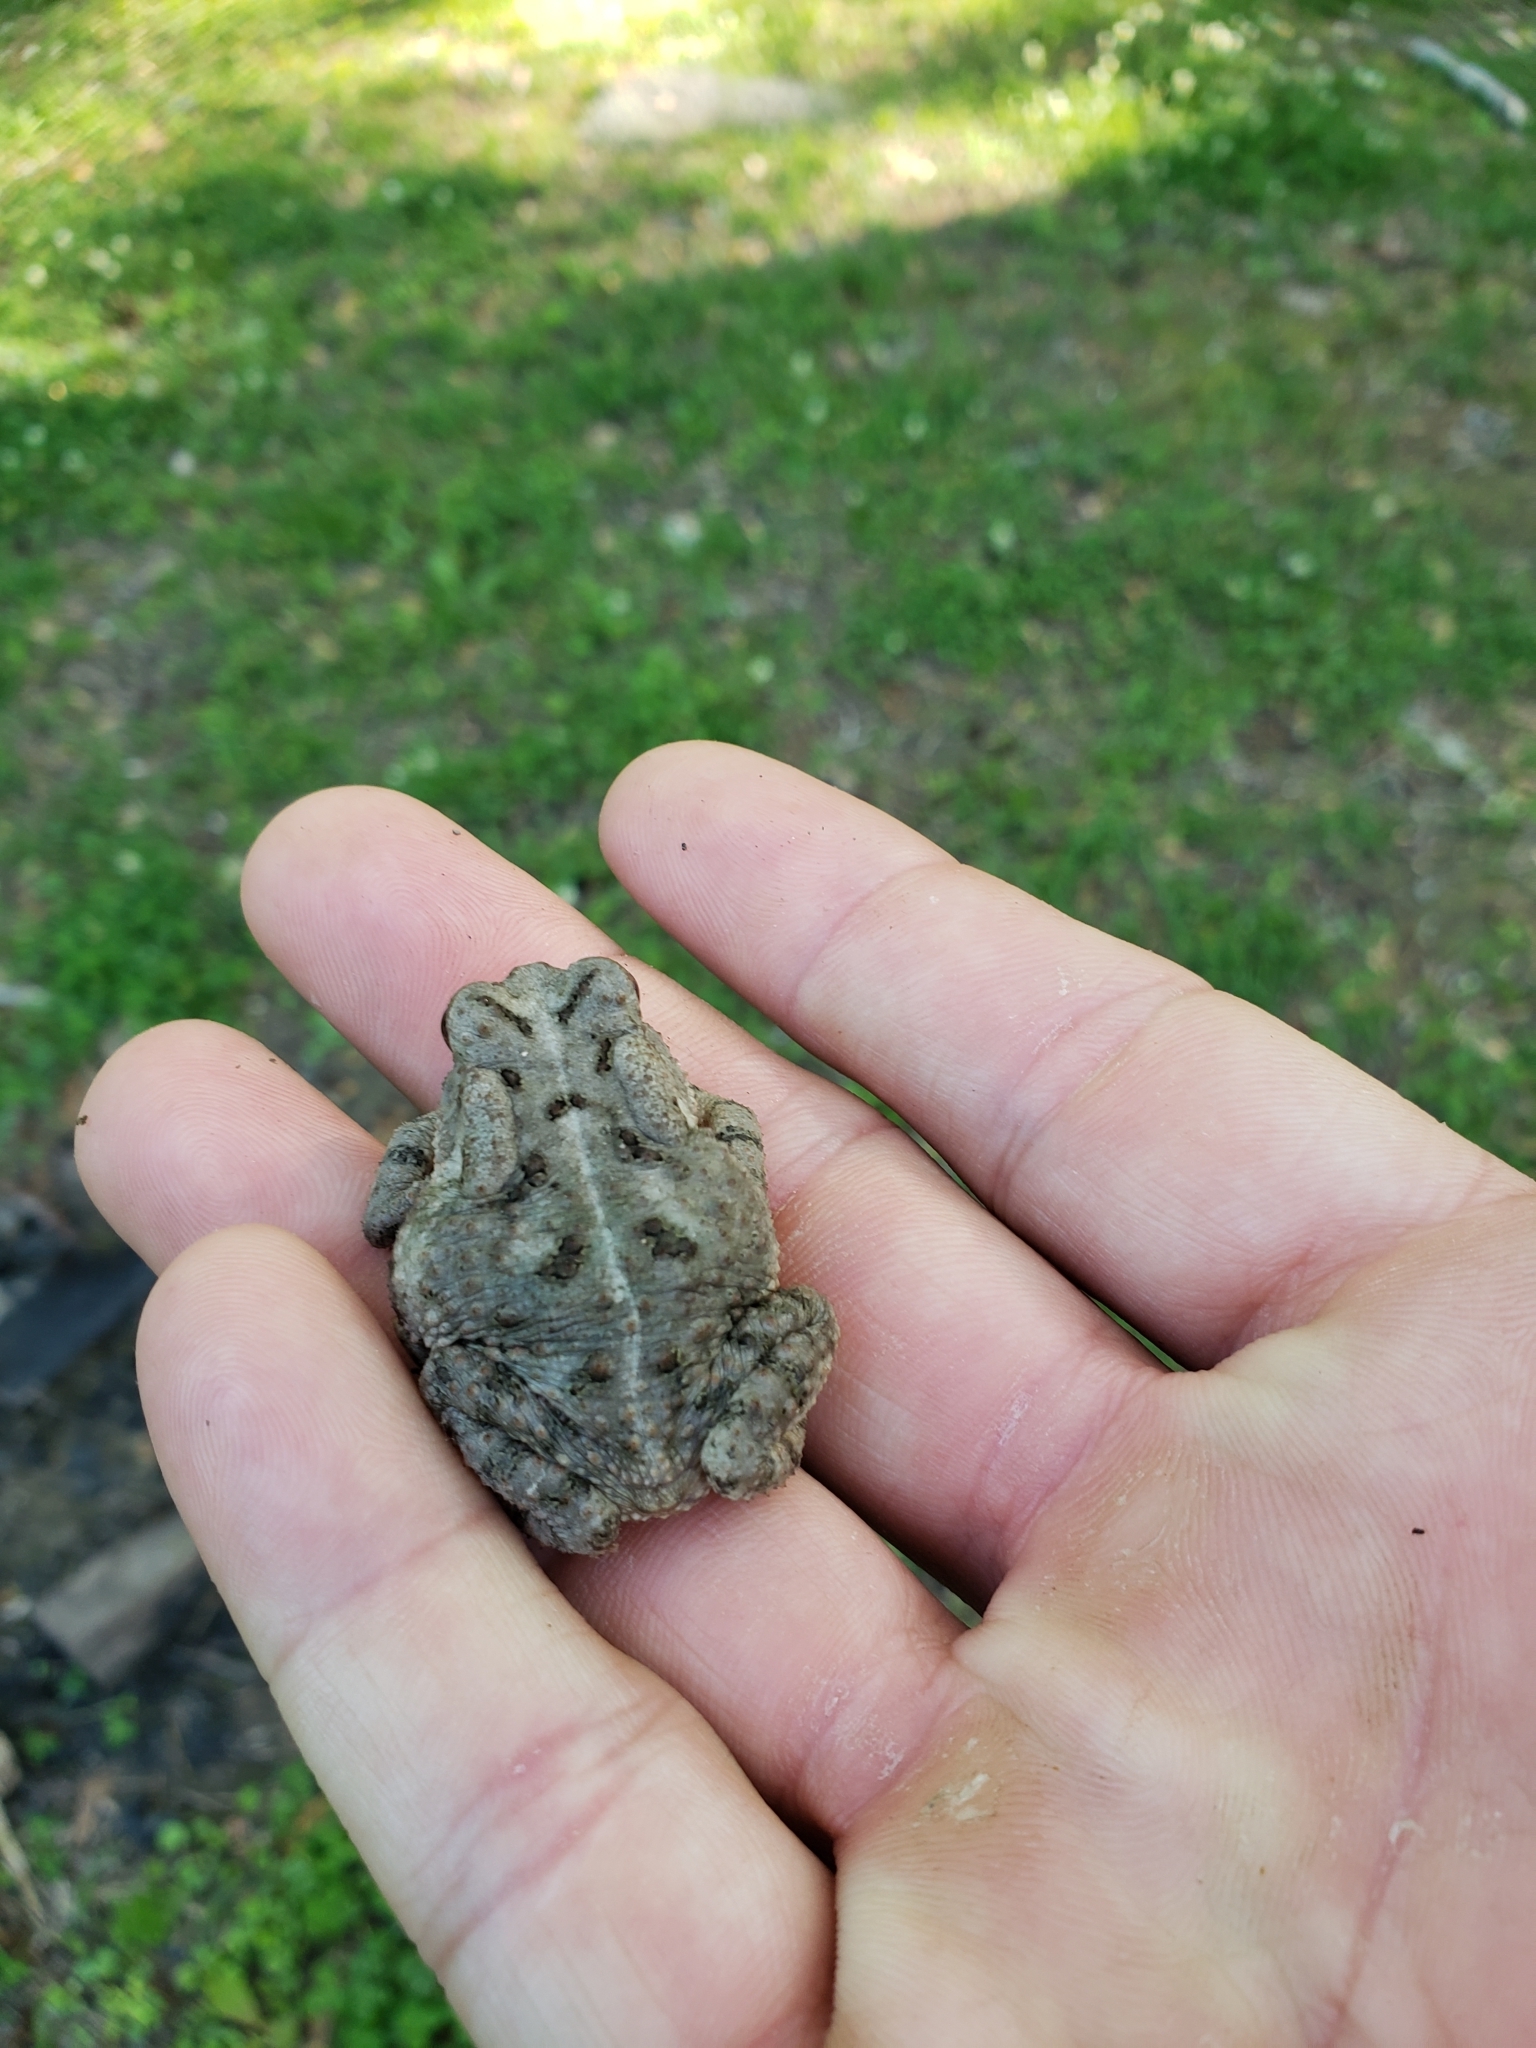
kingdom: Animalia
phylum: Chordata
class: Amphibia
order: Anura
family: Bufonidae
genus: Anaxyrus
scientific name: Anaxyrus fowleri
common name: Fowler's toad
